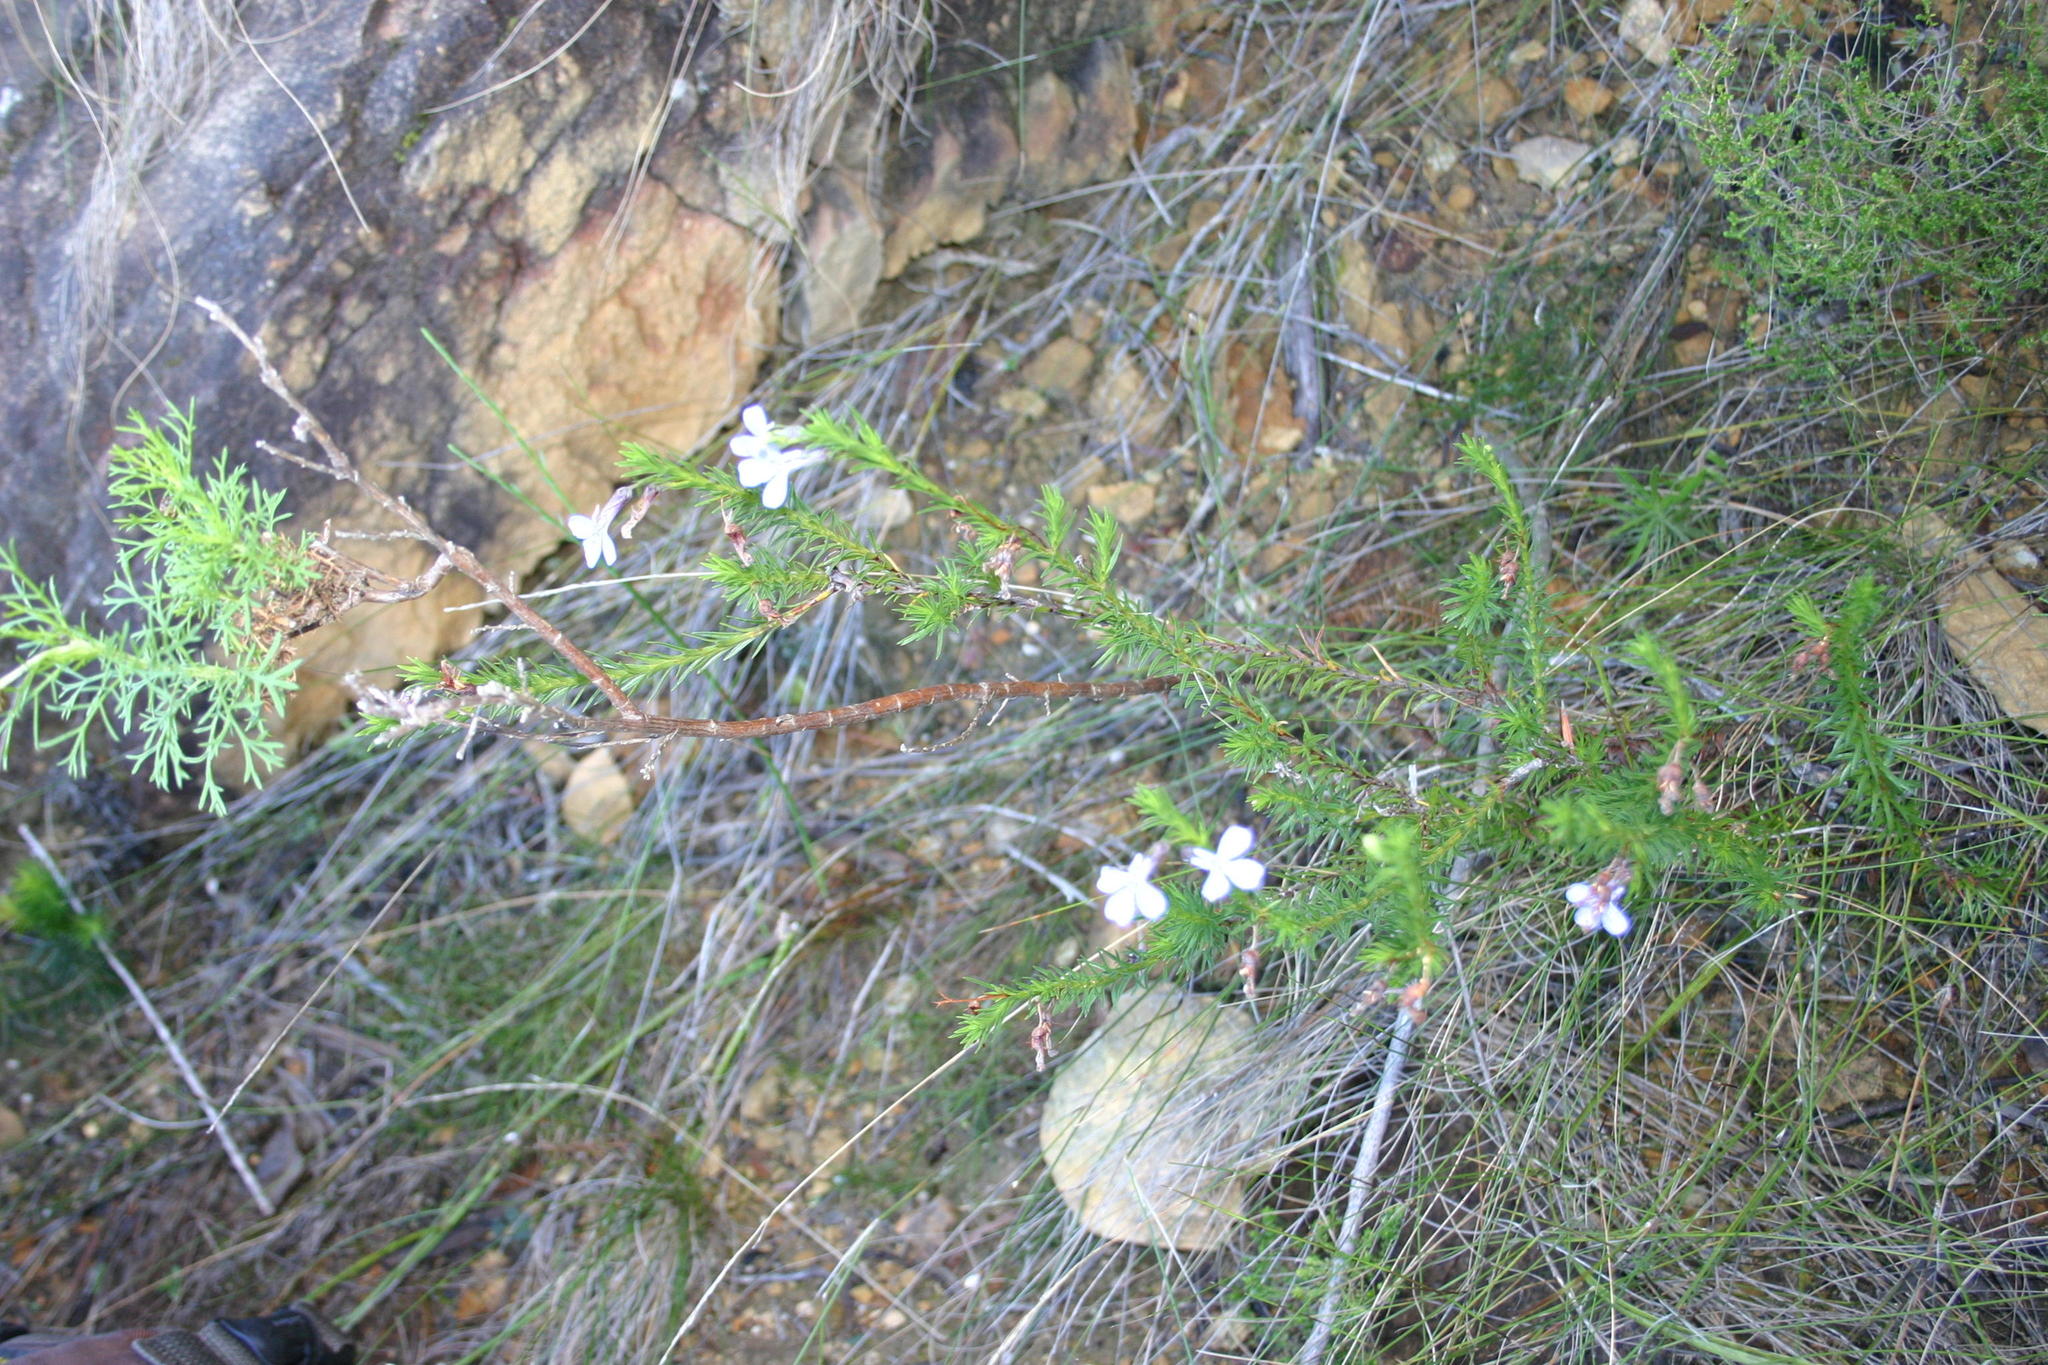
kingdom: Plantae
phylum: Tracheophyta
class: Magnoliopsida
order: Asterales
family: Campanulaceae
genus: Lobelia
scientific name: Lobelia pinifolia
